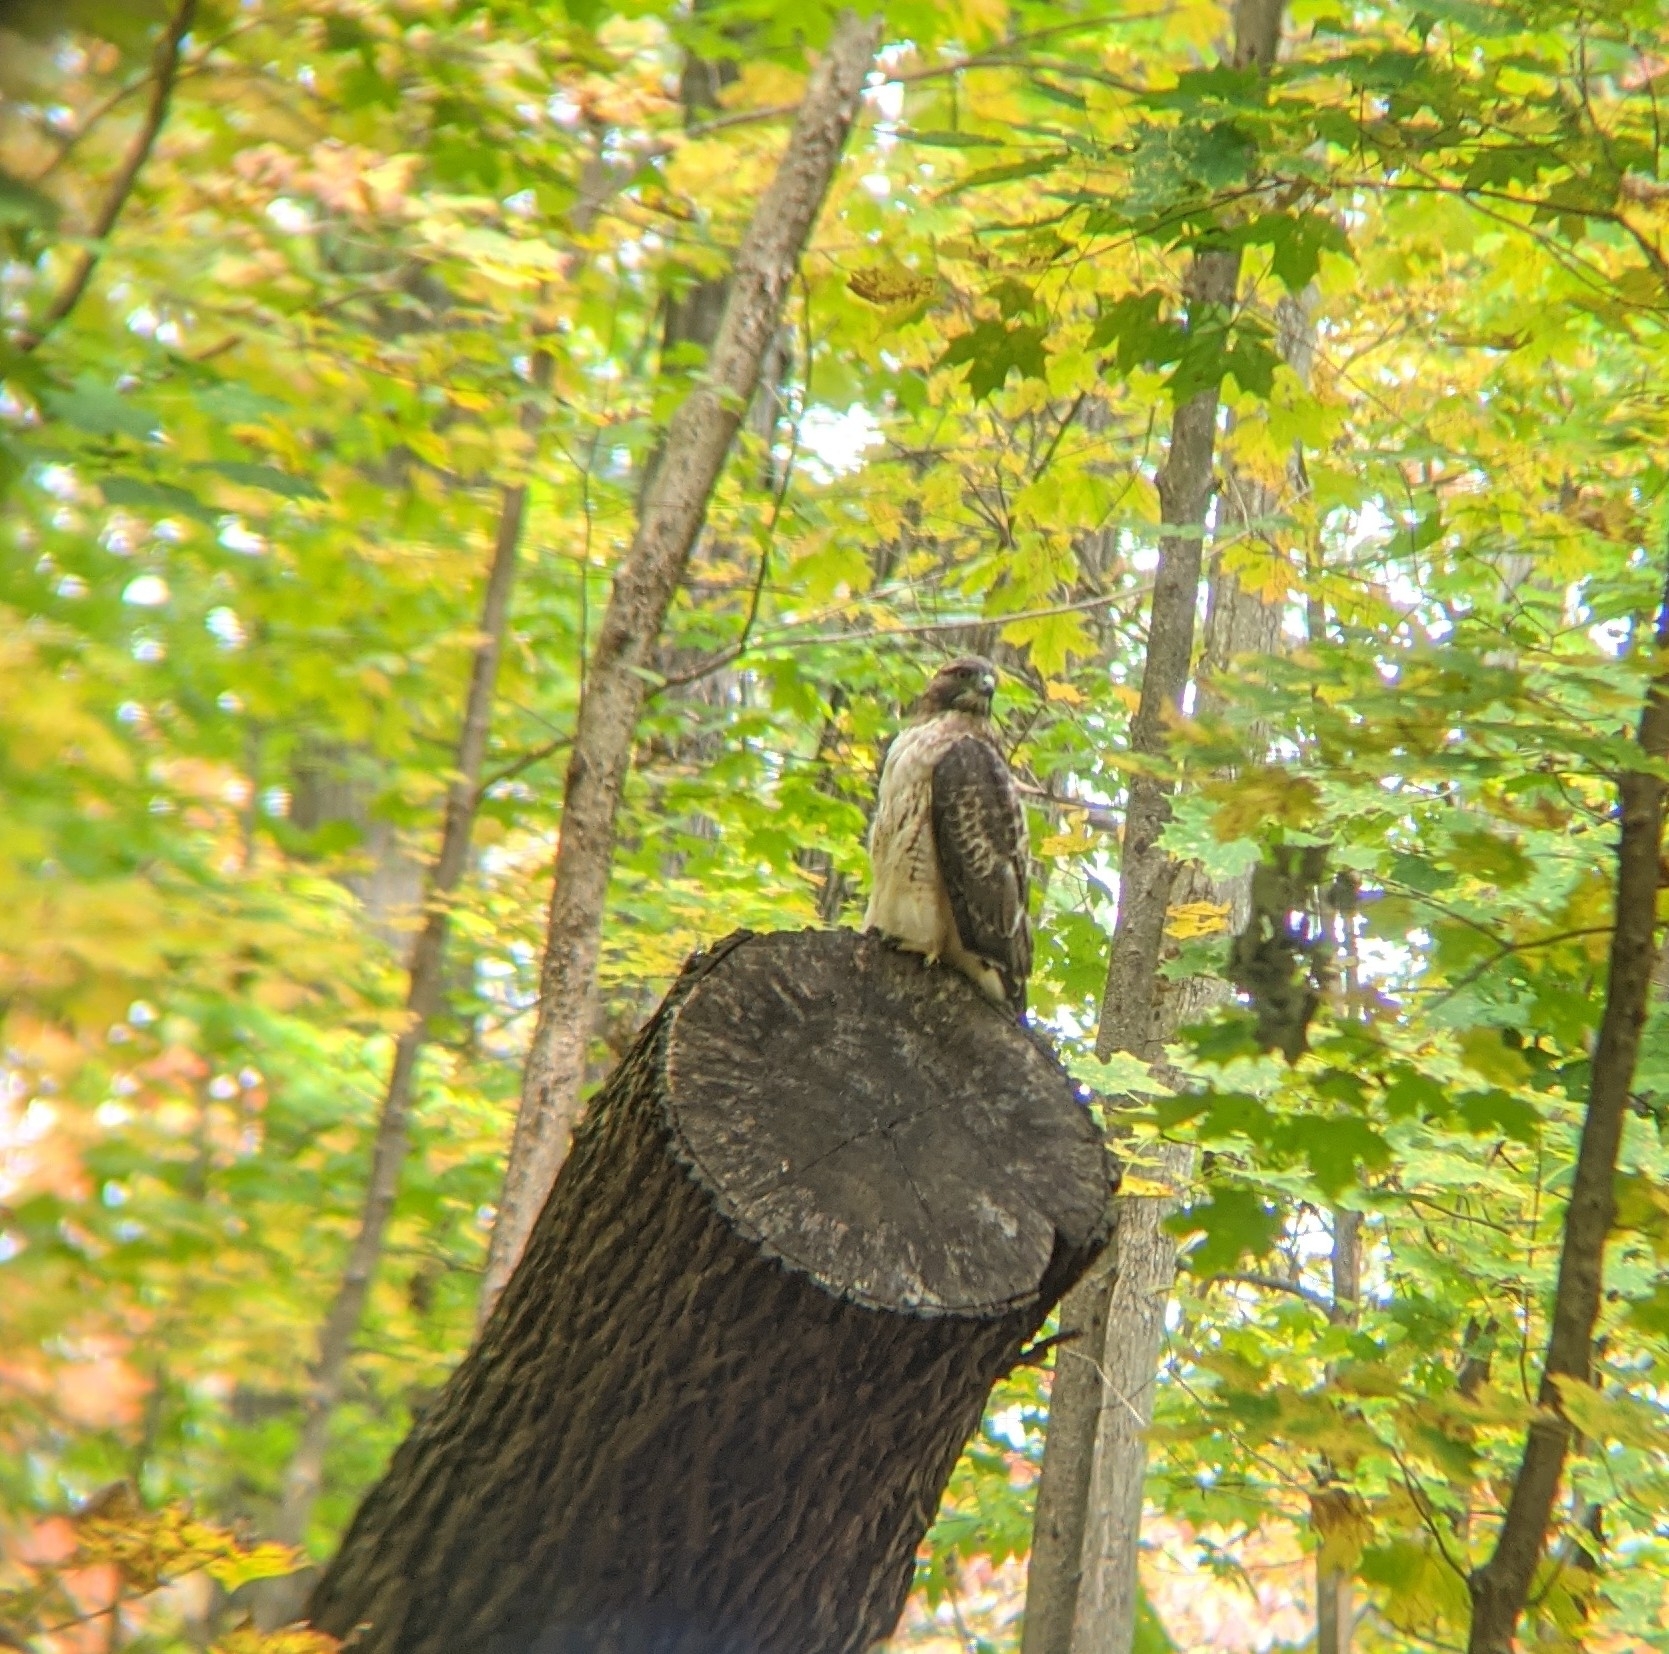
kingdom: Animalia
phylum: Chordata
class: Aves
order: Accipitriformes
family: Accipitridae
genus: Buteo
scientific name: Buteo jamaicensis
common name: Red-tailed hawk
